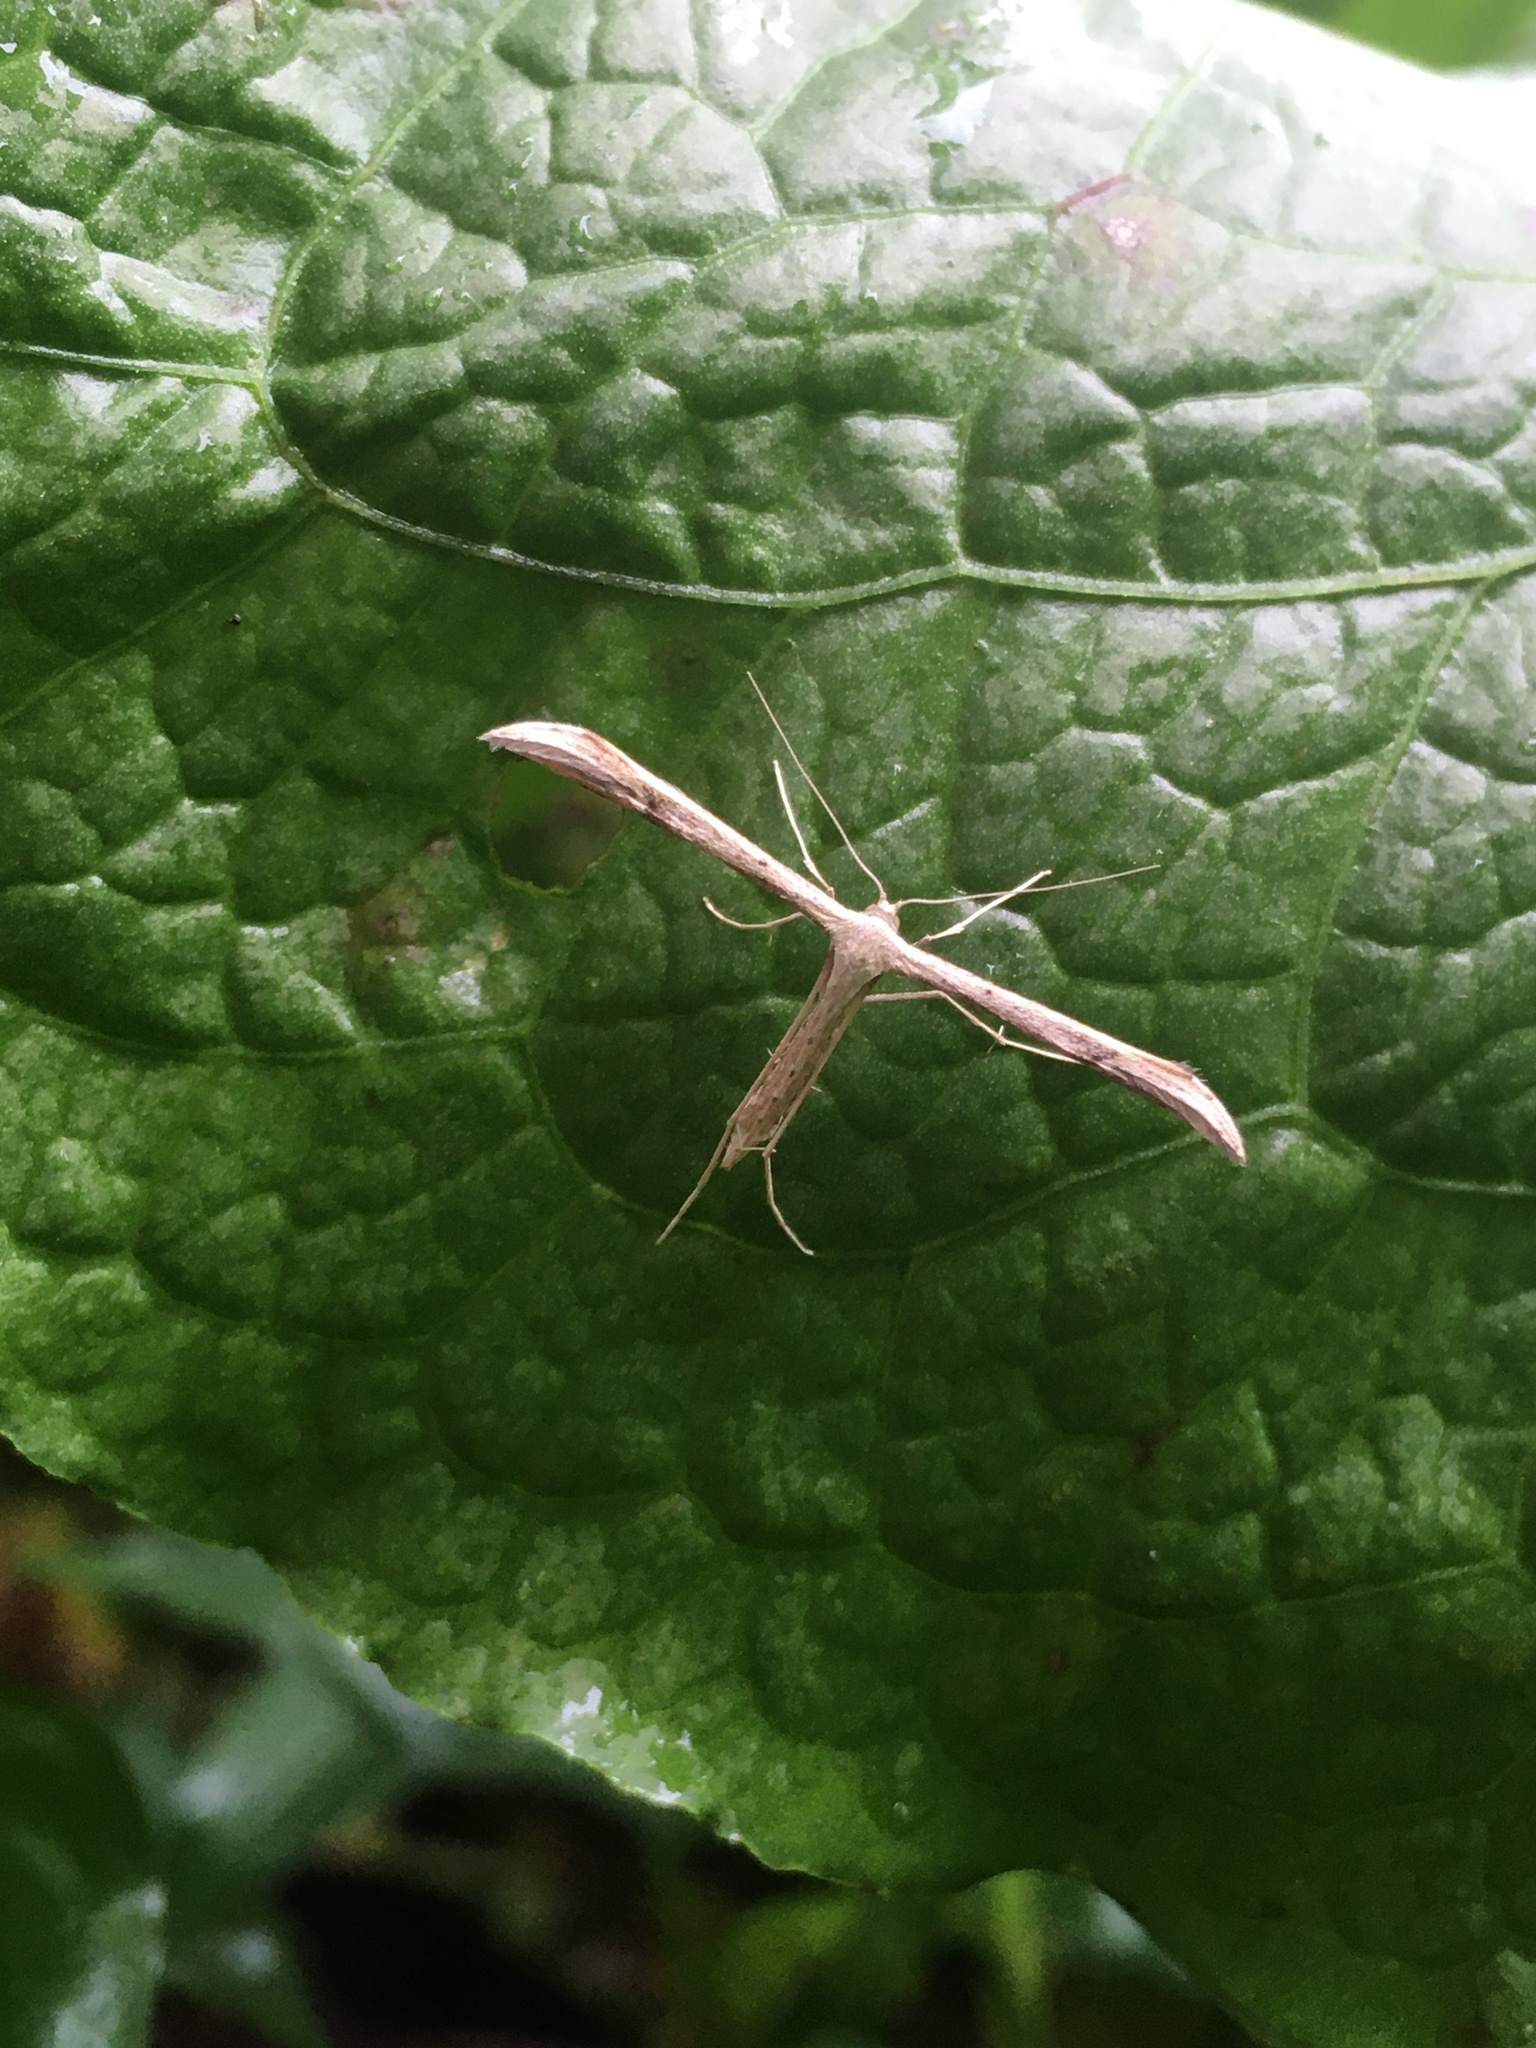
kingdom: Animalia
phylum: Arthropoda
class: Insecta
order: Lepidoptera
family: Pterophoridae
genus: Emmelina
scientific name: Emmelina monodactyla
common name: Common plume
